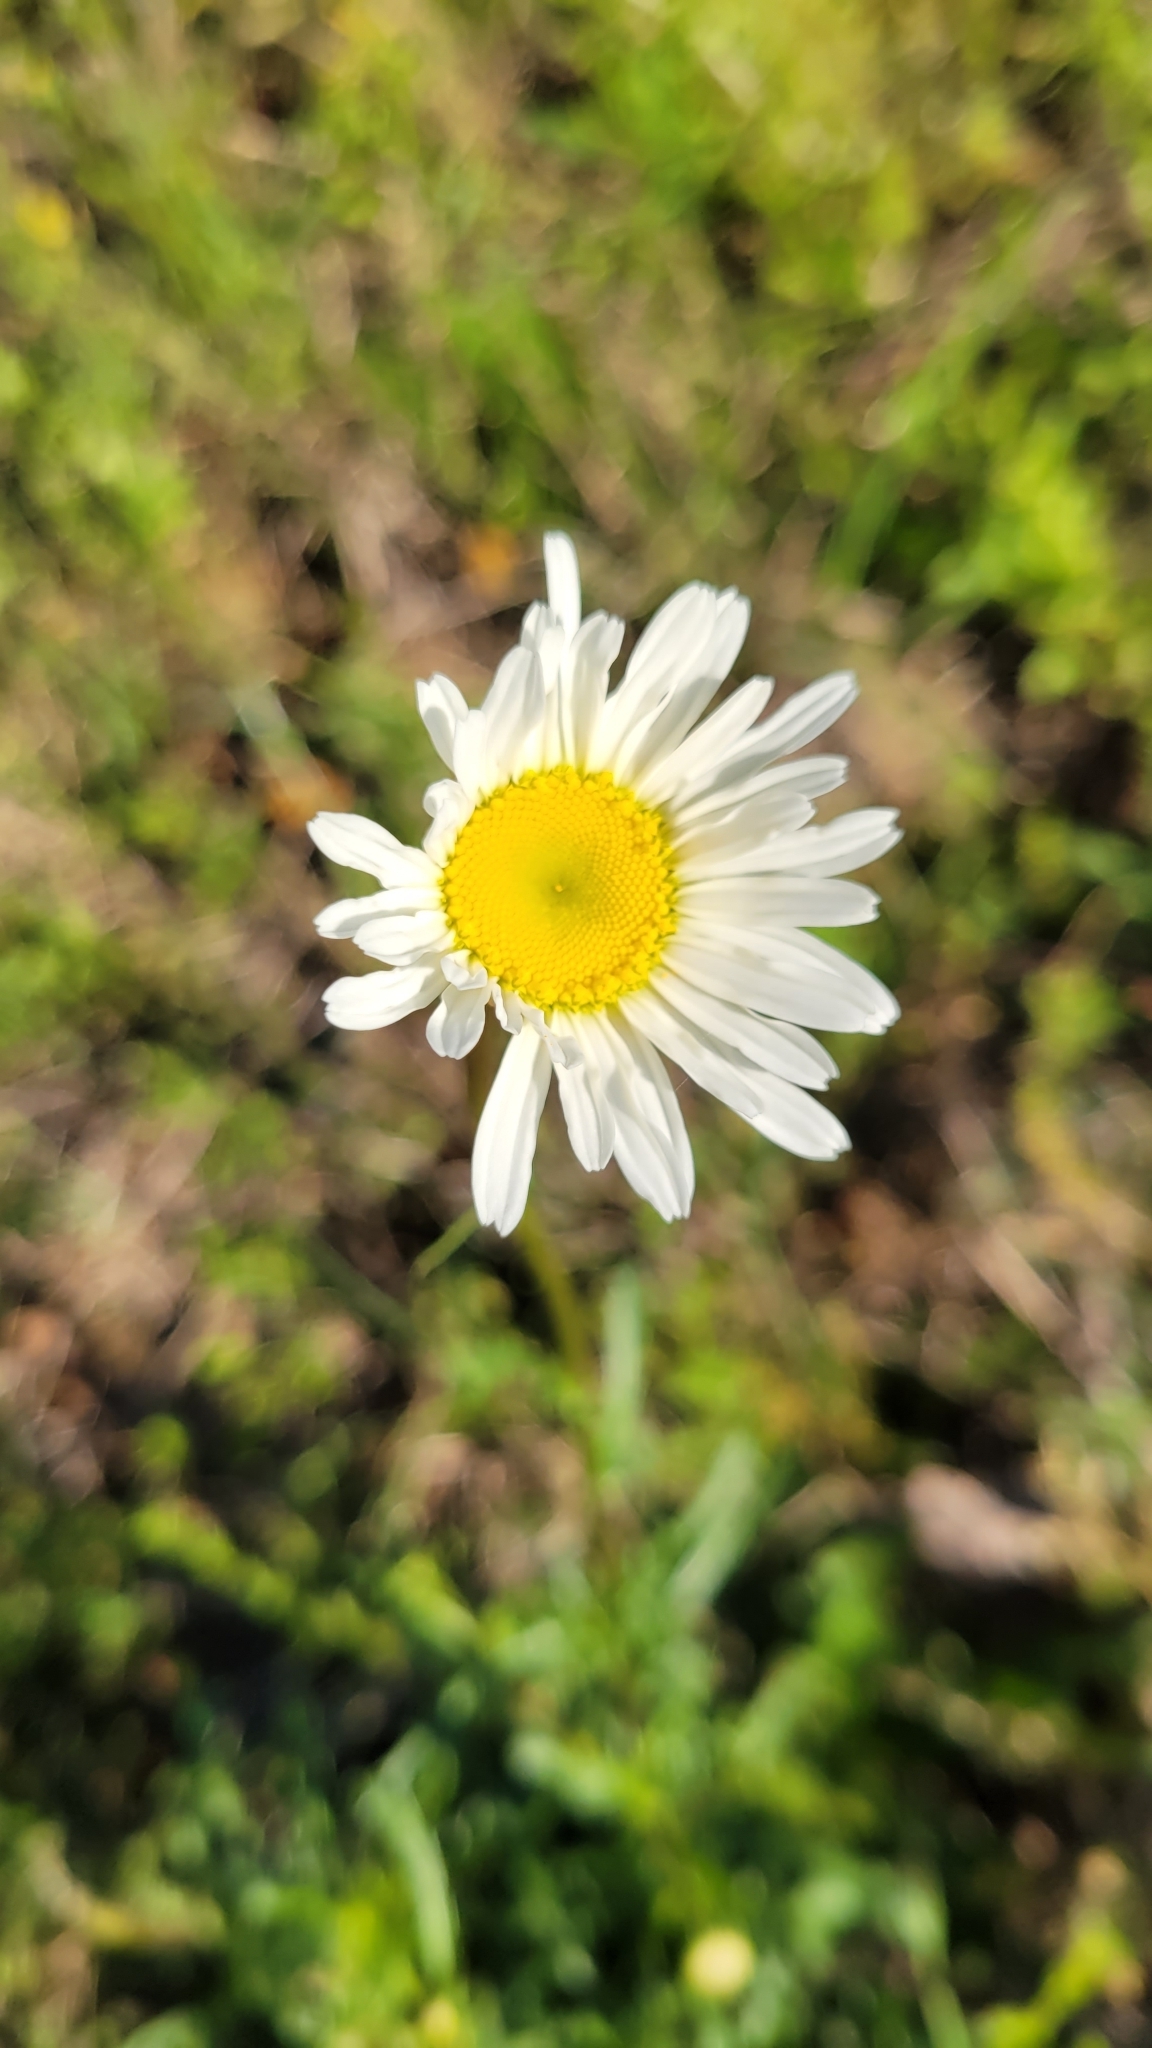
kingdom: Plantae
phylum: Tracheophyta
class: Magnoliopsida
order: Asterales
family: Asteraceae
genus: Leucanthemum
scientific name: Leucanthemum vulgare
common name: Oxeye daisy
